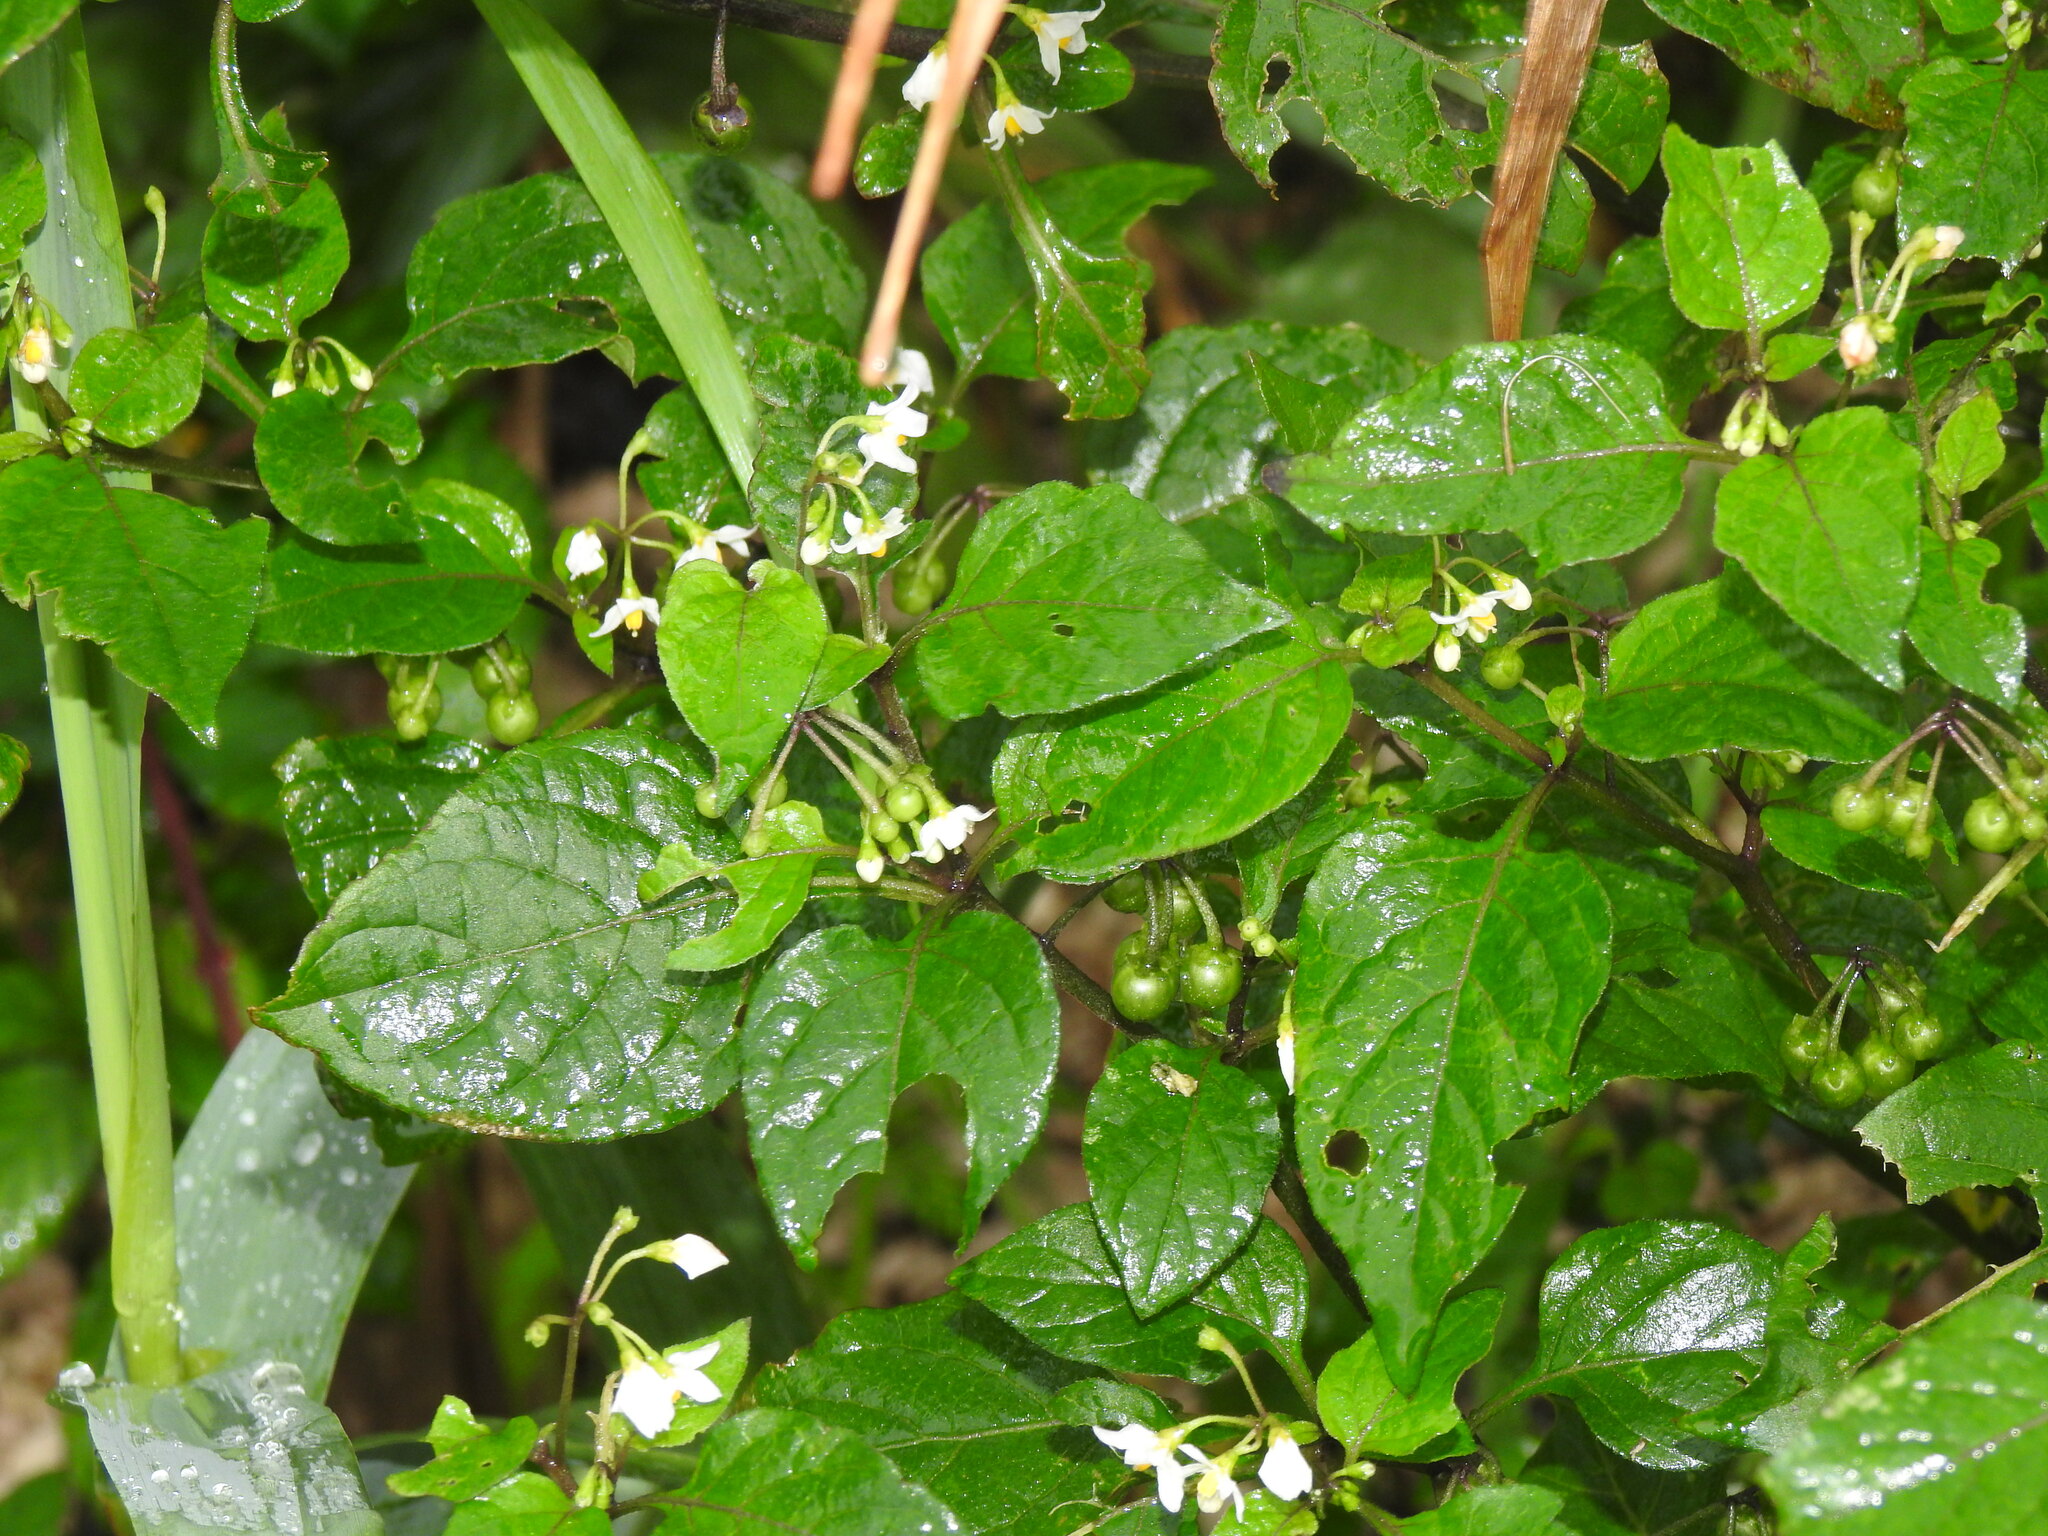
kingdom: Plantae
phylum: Tracheophyta
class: Magnoliopsida
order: Solanales
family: Solanaceae
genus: Solanum
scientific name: Solanum nigrum
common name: Black nightshade
